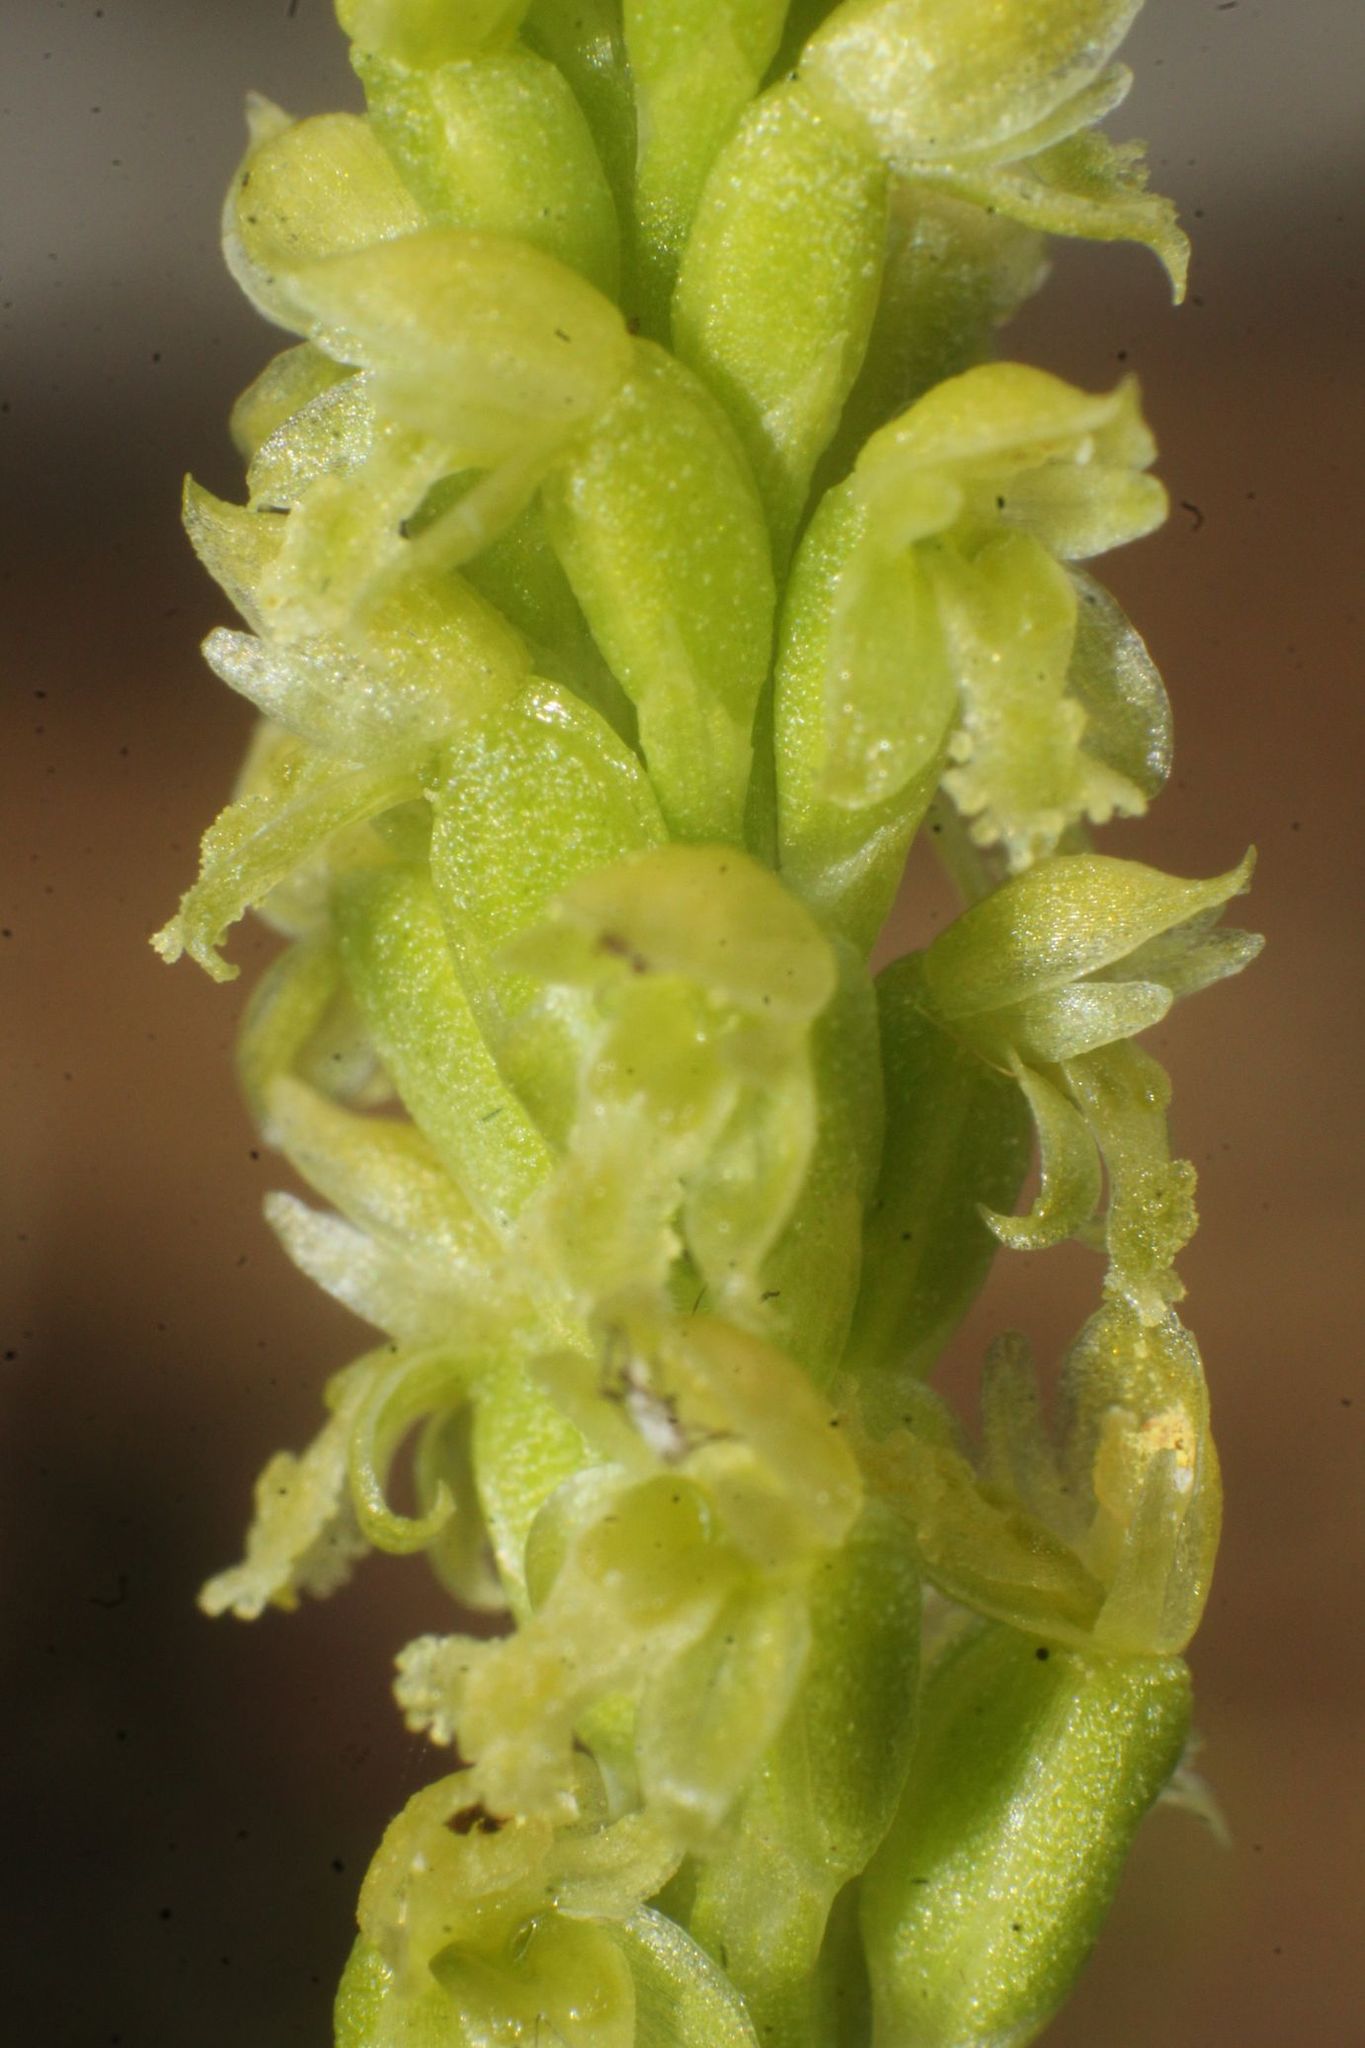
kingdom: Plantae
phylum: Tracheophyta
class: Liliopsida
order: Asparagales
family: Orchidaceae
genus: Microtis
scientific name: Microtis media
